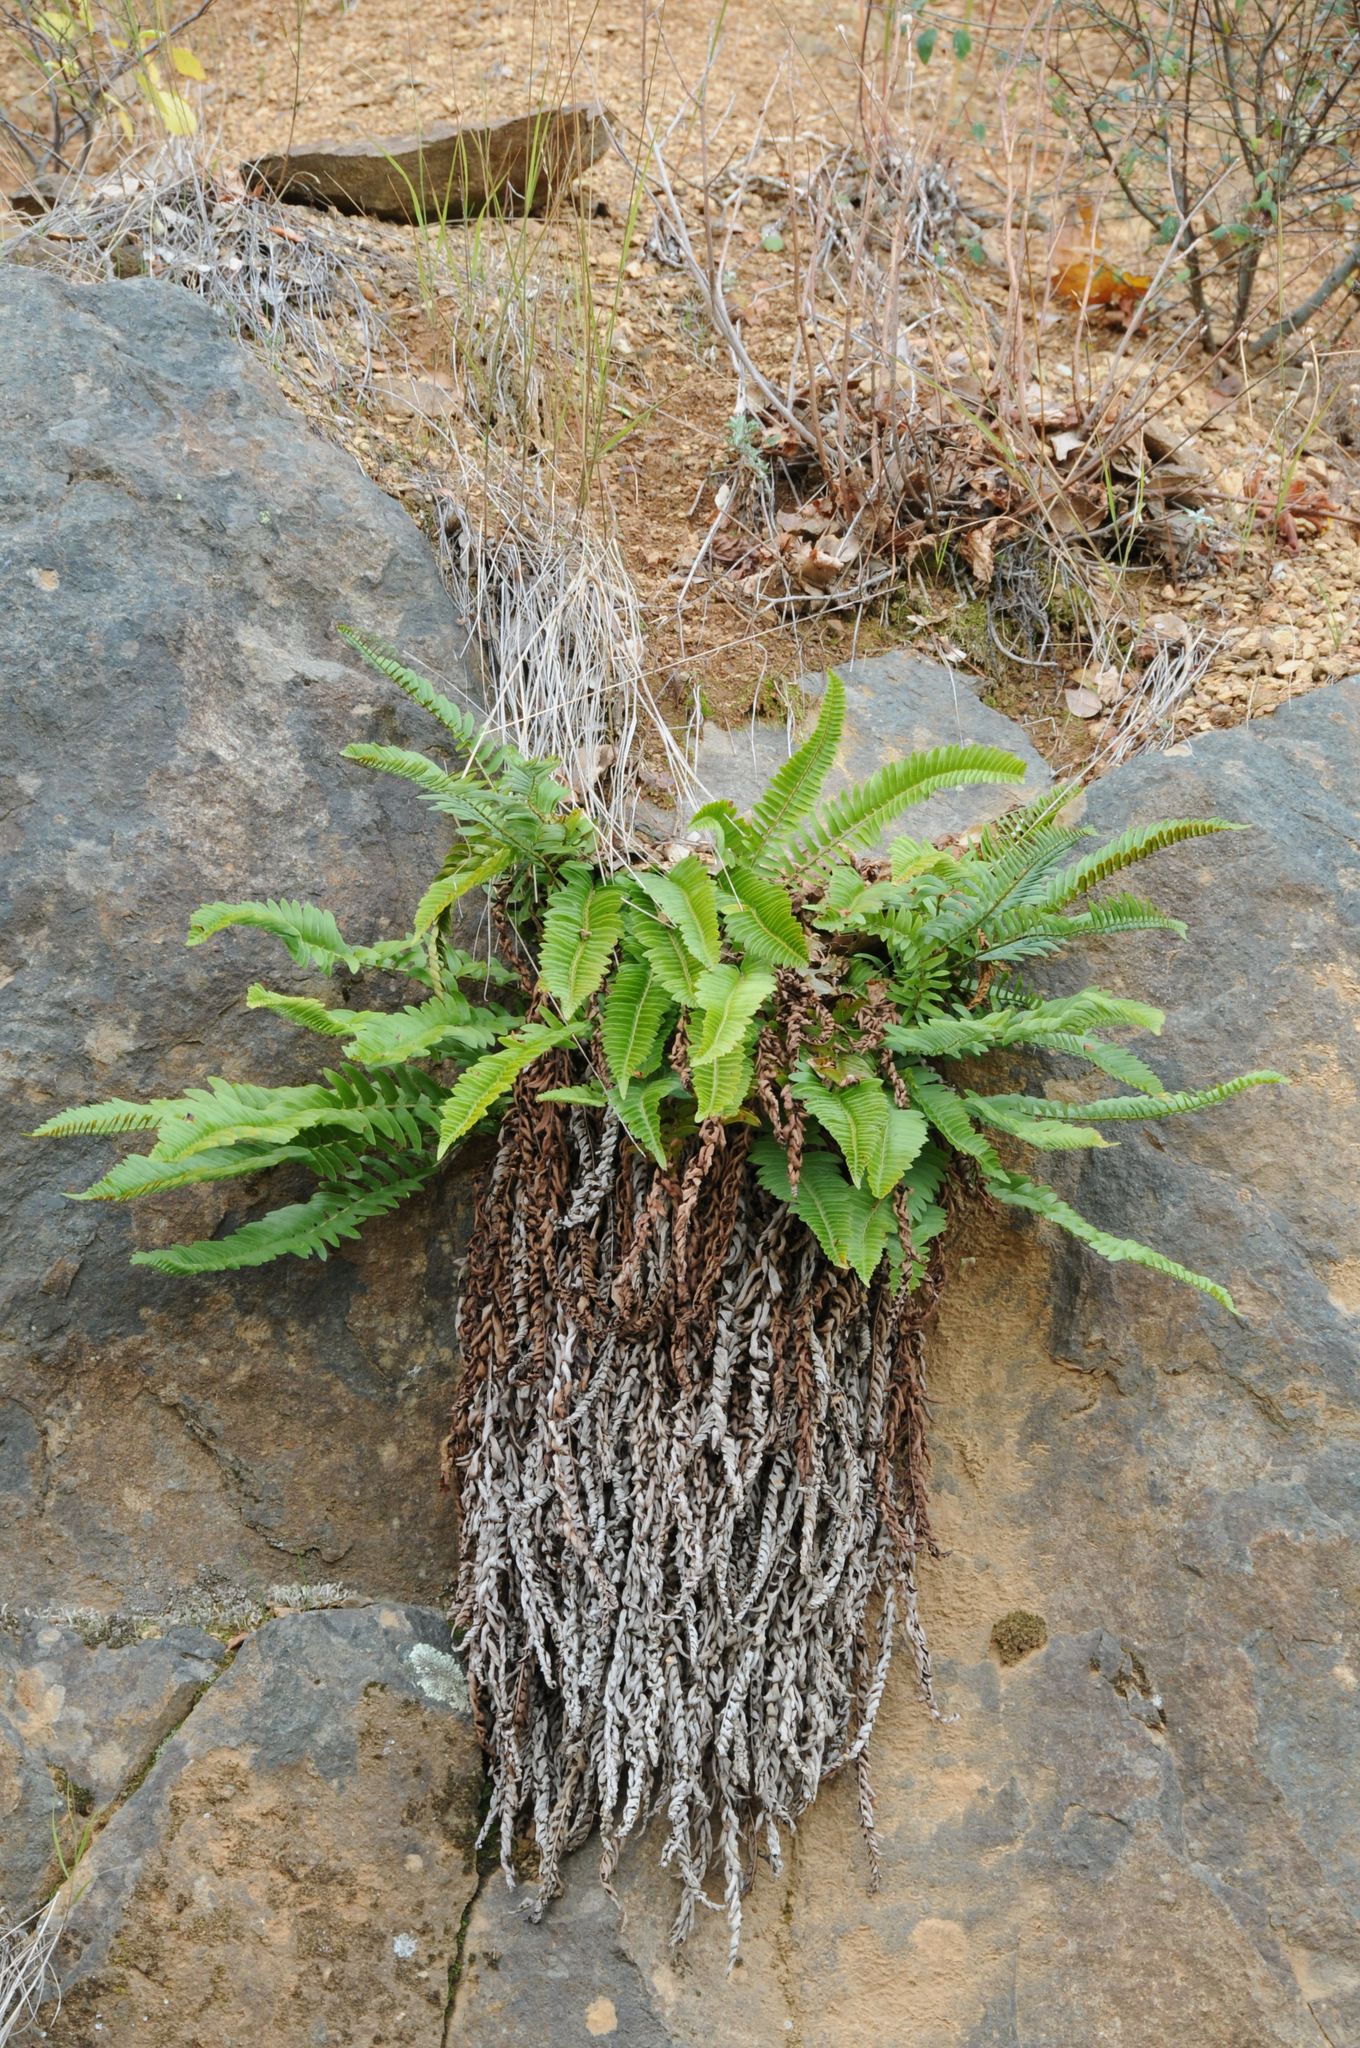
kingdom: Plantae
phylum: Tracheophyta
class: Polypodiopsida
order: Polypodiales
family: Dryopteridaceae
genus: Polystichum
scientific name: Polystichum imbricans
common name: Dwarf western sword fern
